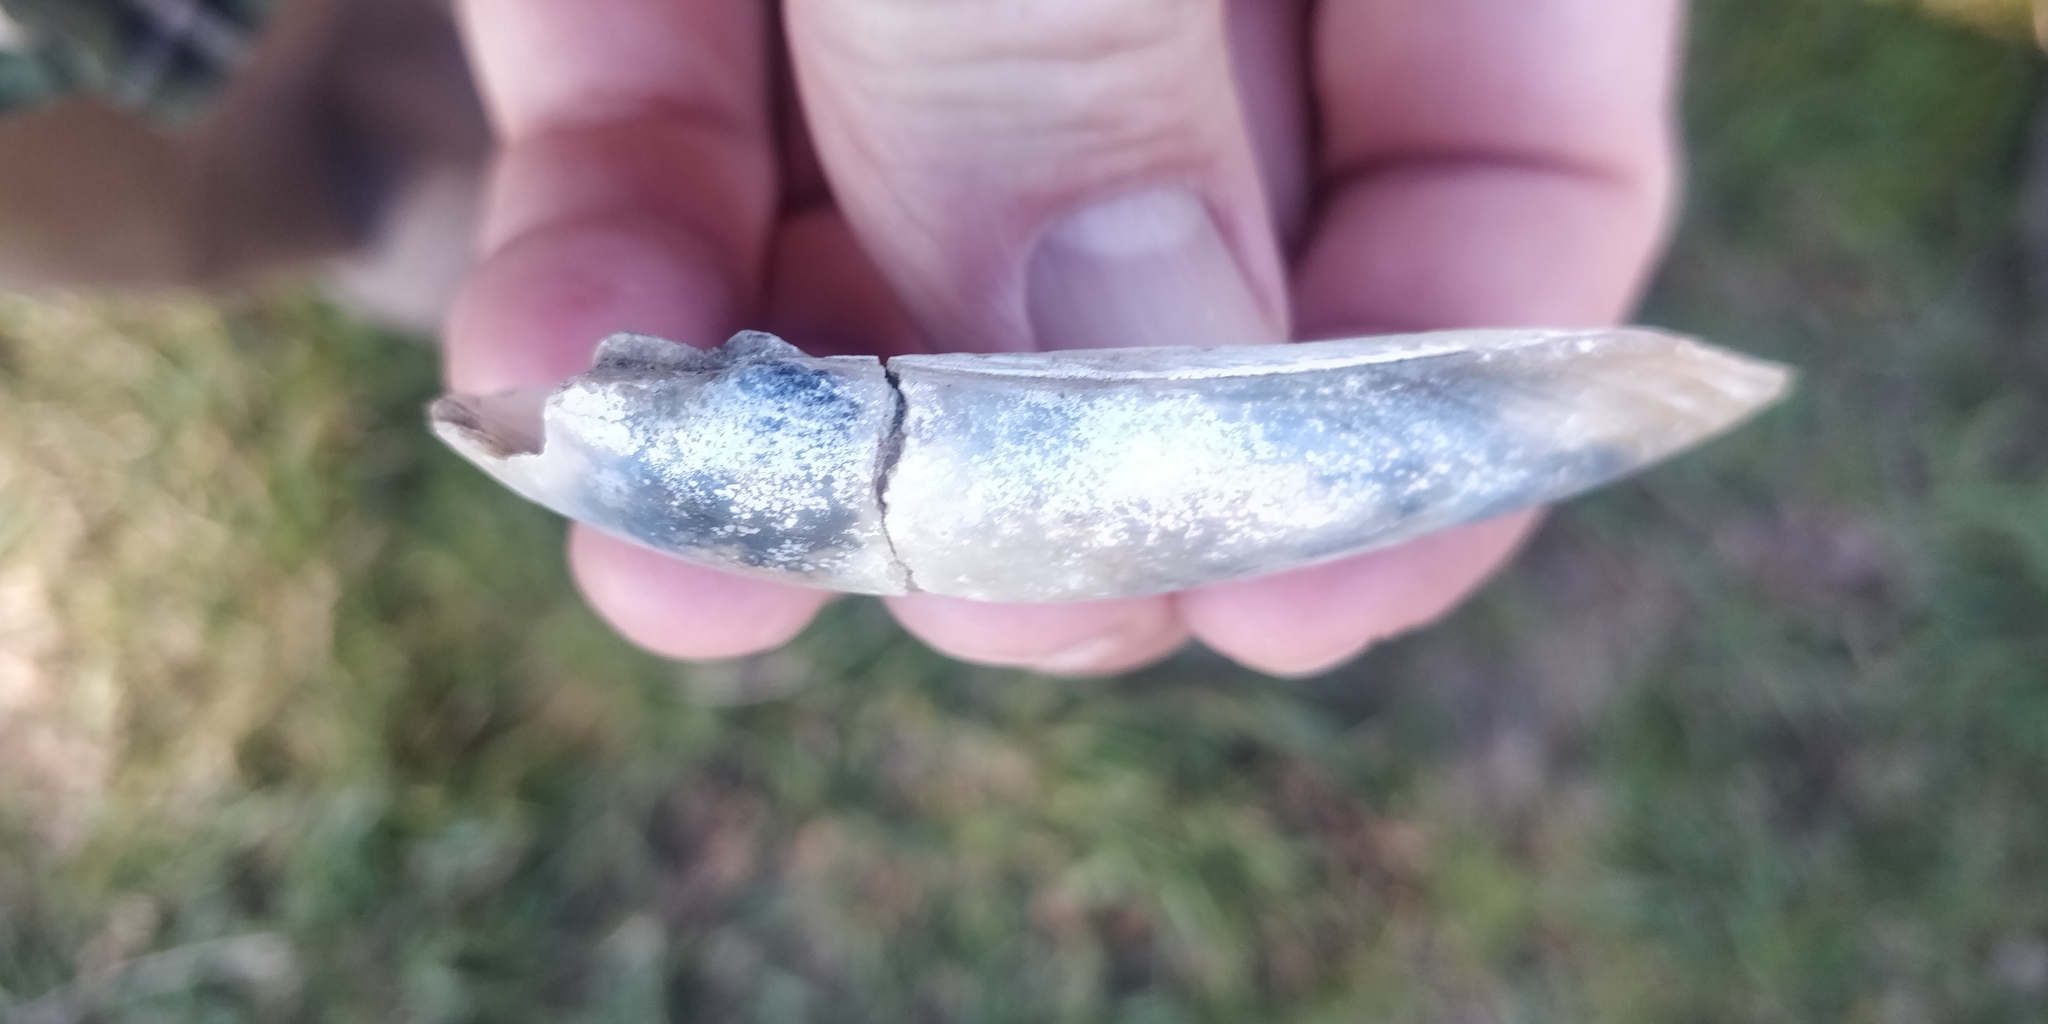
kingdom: Animalia
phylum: Mollusca
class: Bivalvia
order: Unionida
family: Unionidae
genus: Lampsilis
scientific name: Lampsilis teres
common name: Yellow sandshell
